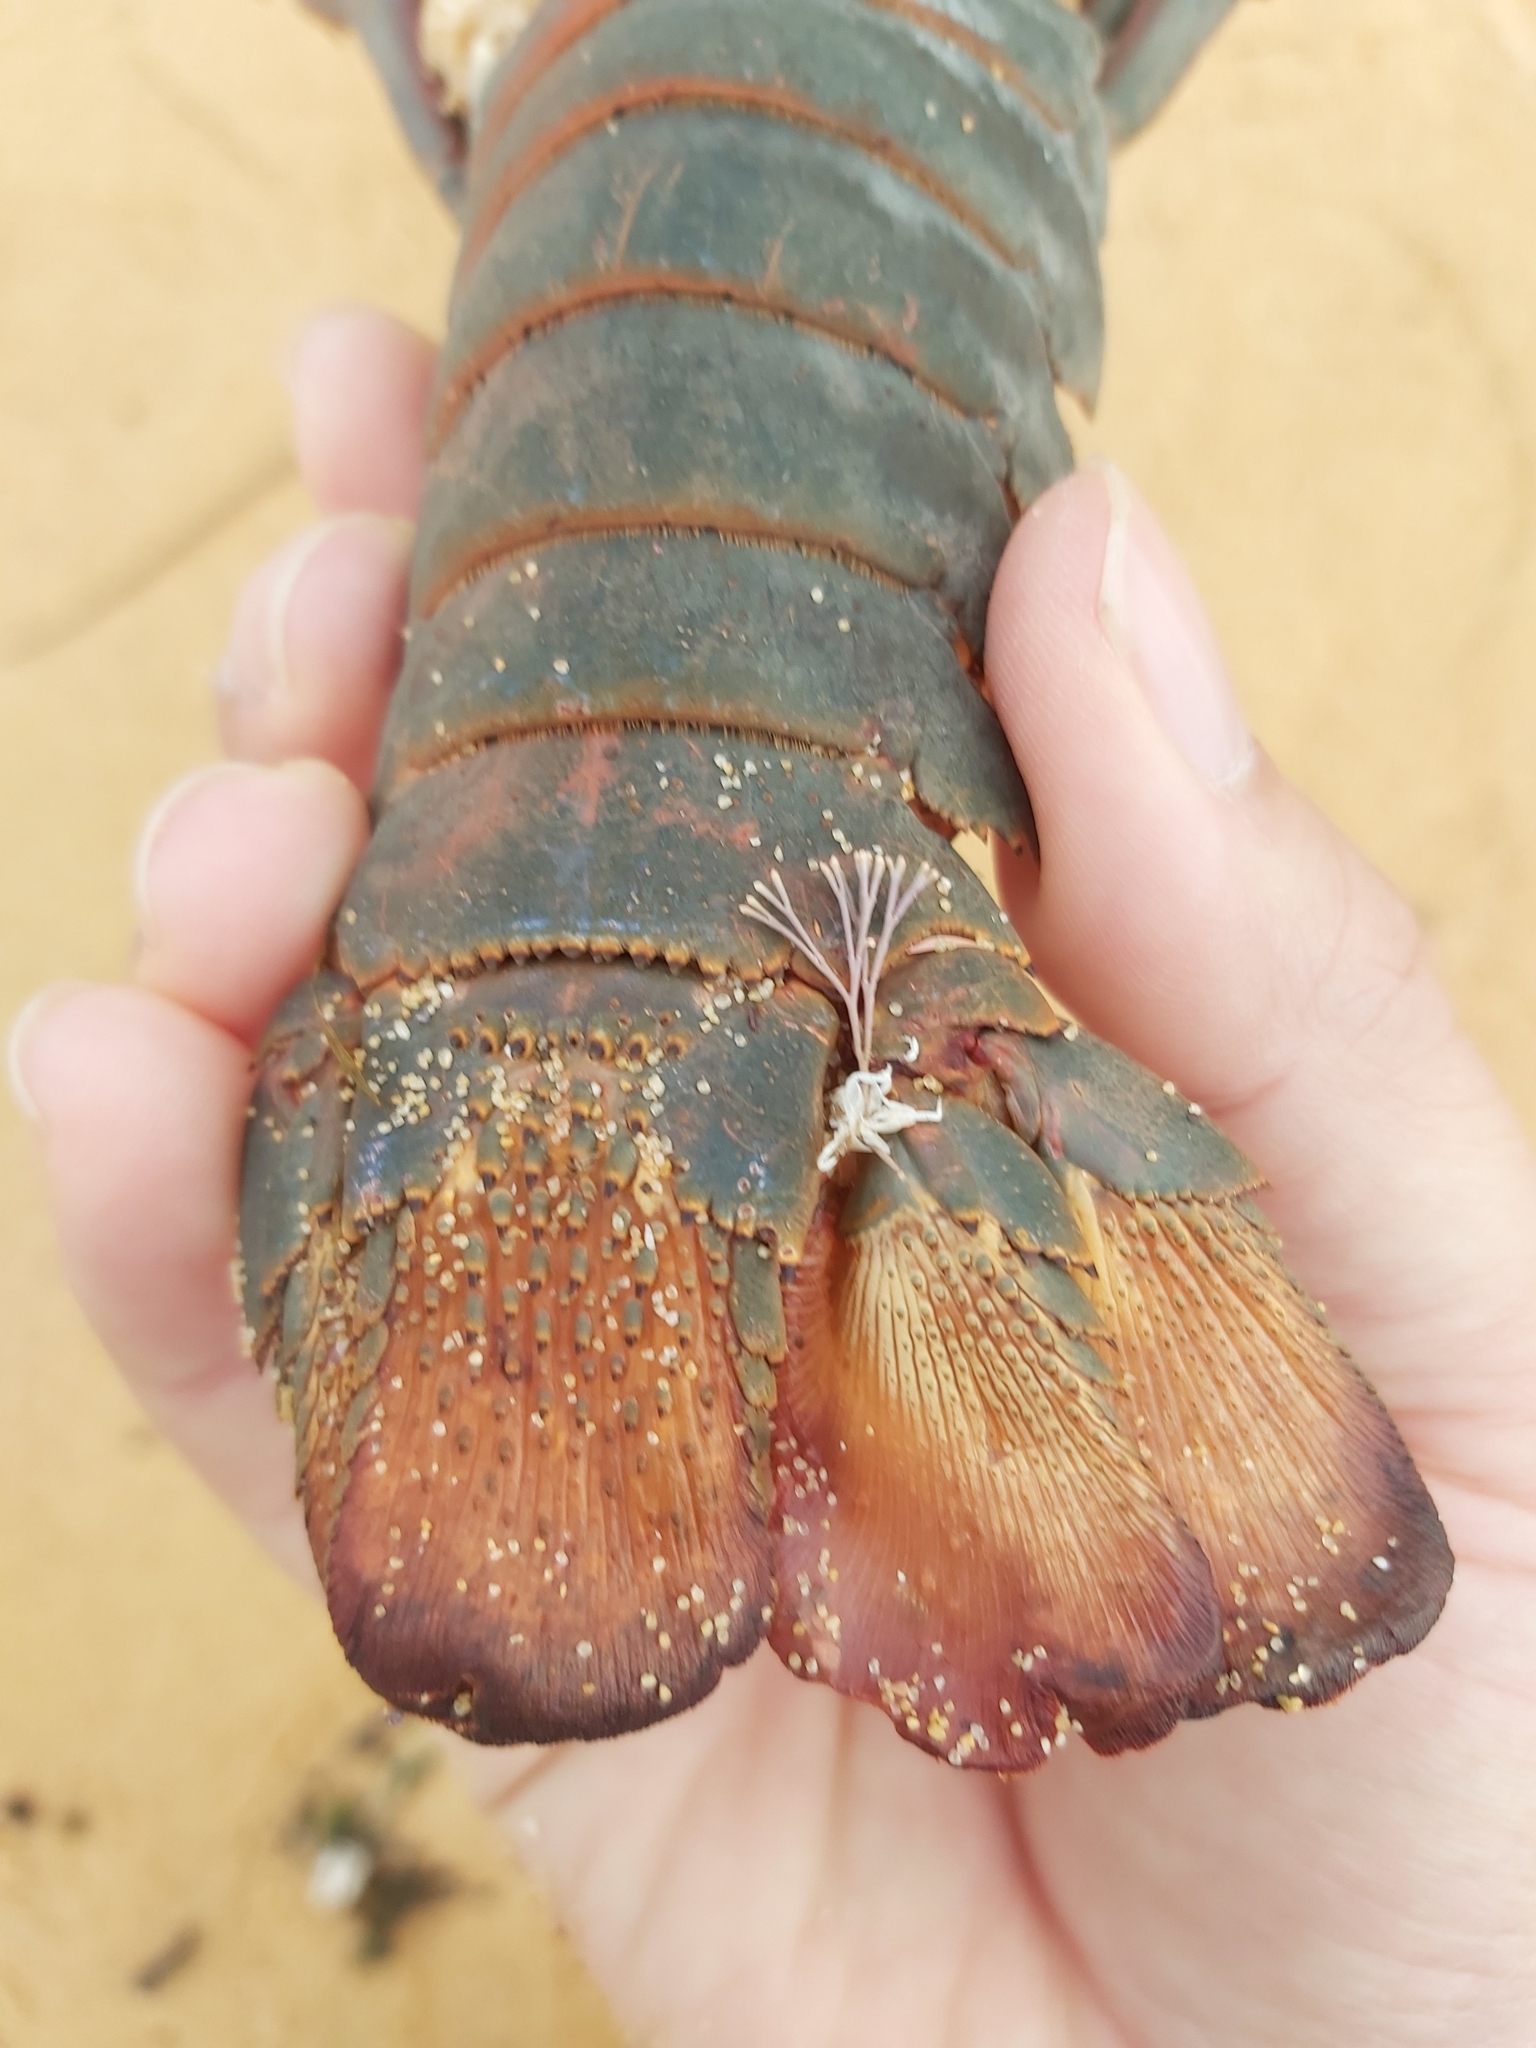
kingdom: Animalia
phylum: Arthropoda
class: Malacostraca
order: Decapoda
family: Palinuridae
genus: Sagmariasus
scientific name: Sagmariasus verreauxi
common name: Green rock lobster
